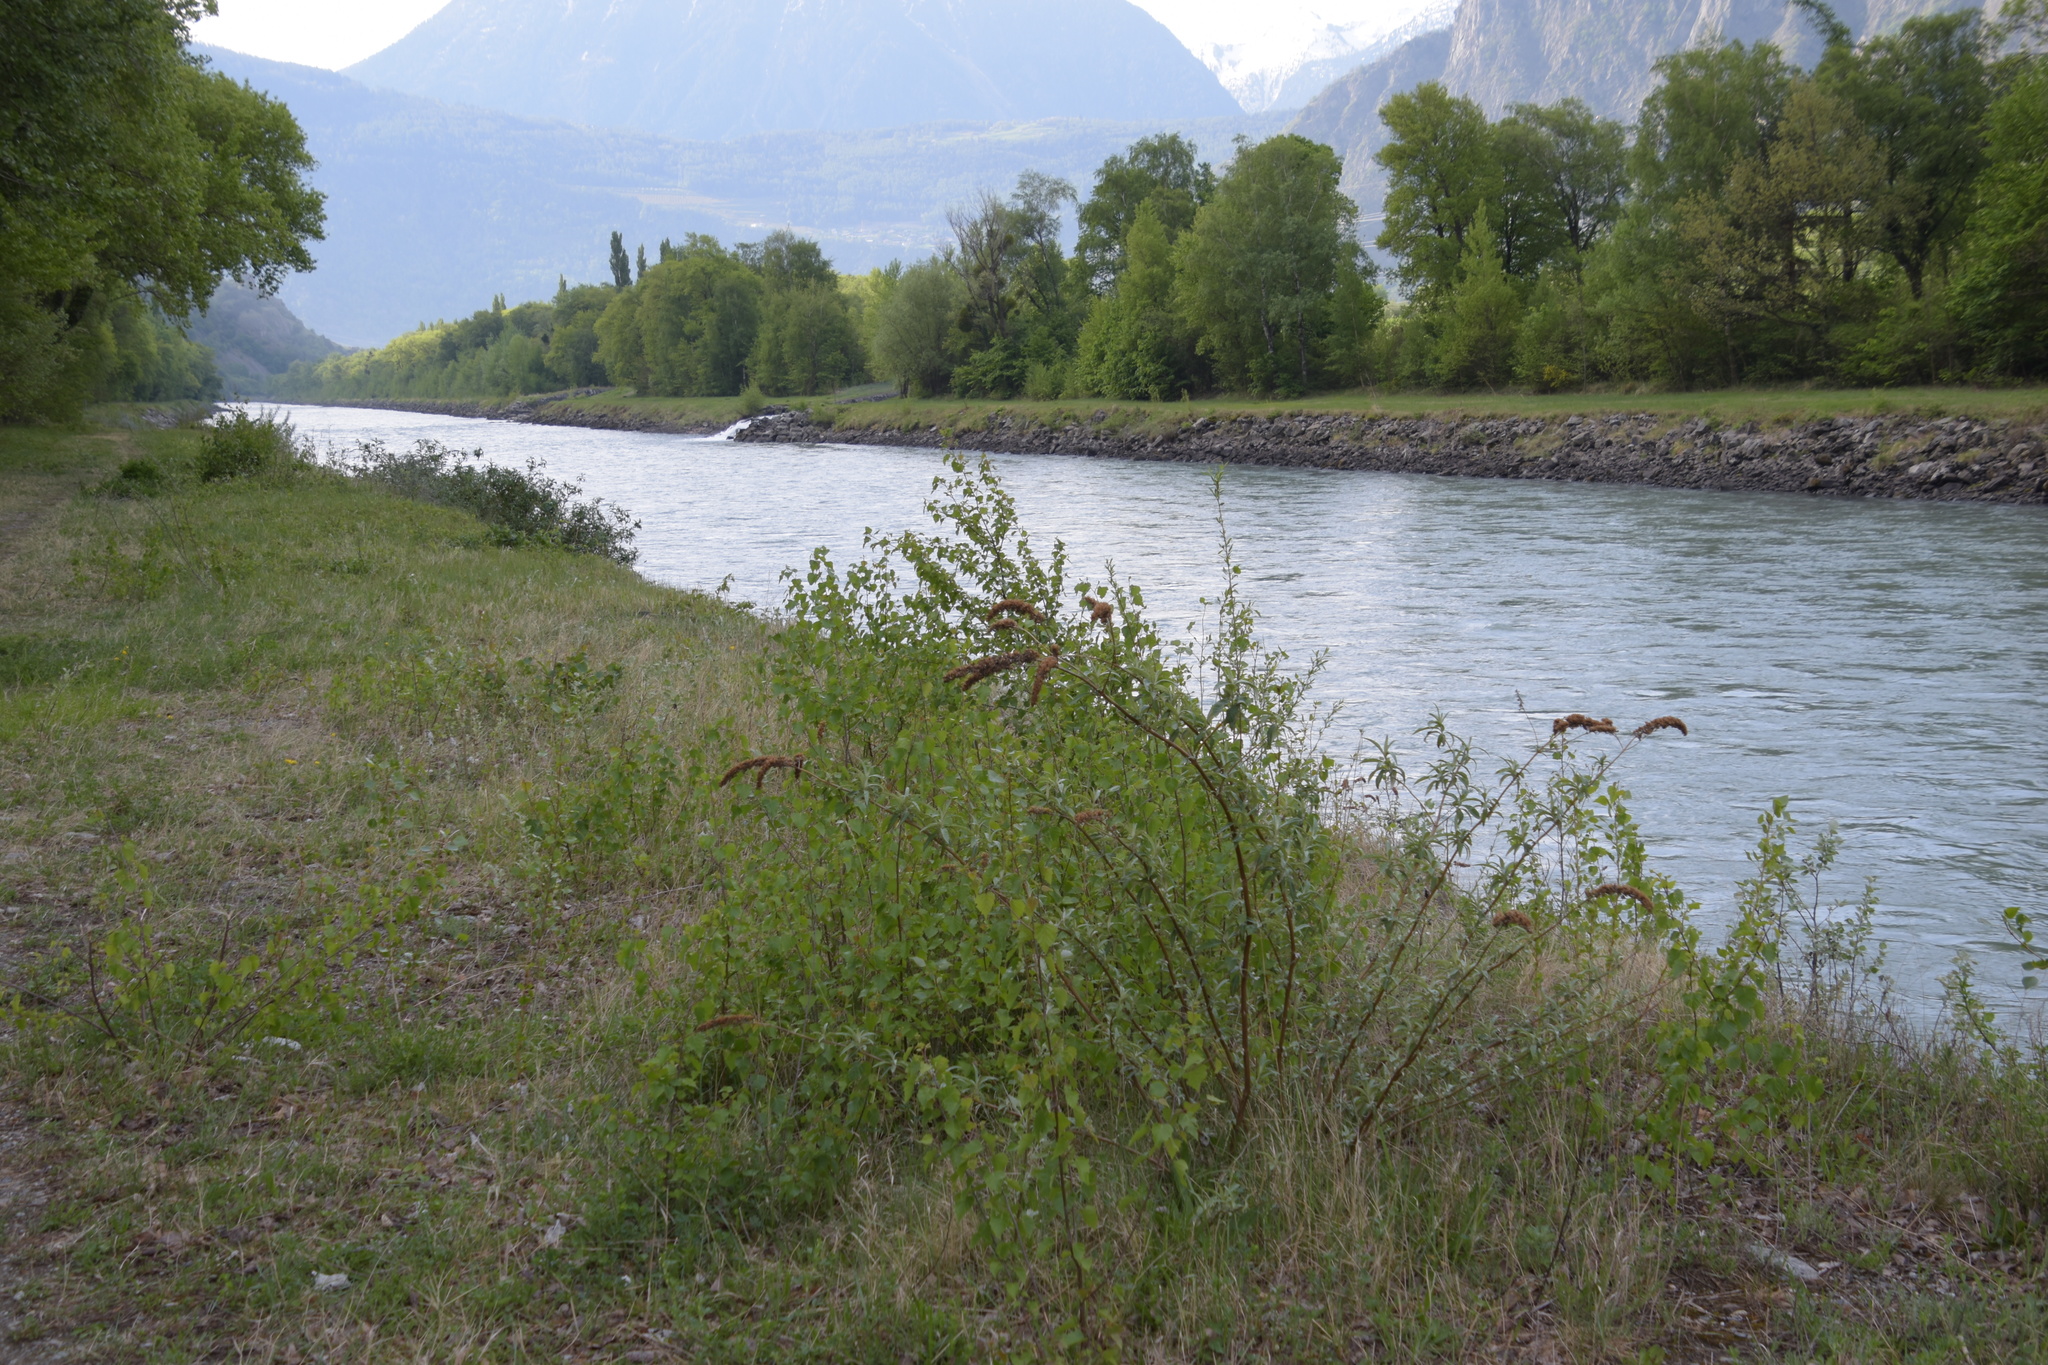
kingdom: Plantae
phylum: Tracheophyta
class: Magnoliopsida
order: Lamiales
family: Scrophulariaceae
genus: Buddleja
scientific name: Buddleja davidii
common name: Butterfly-bush
